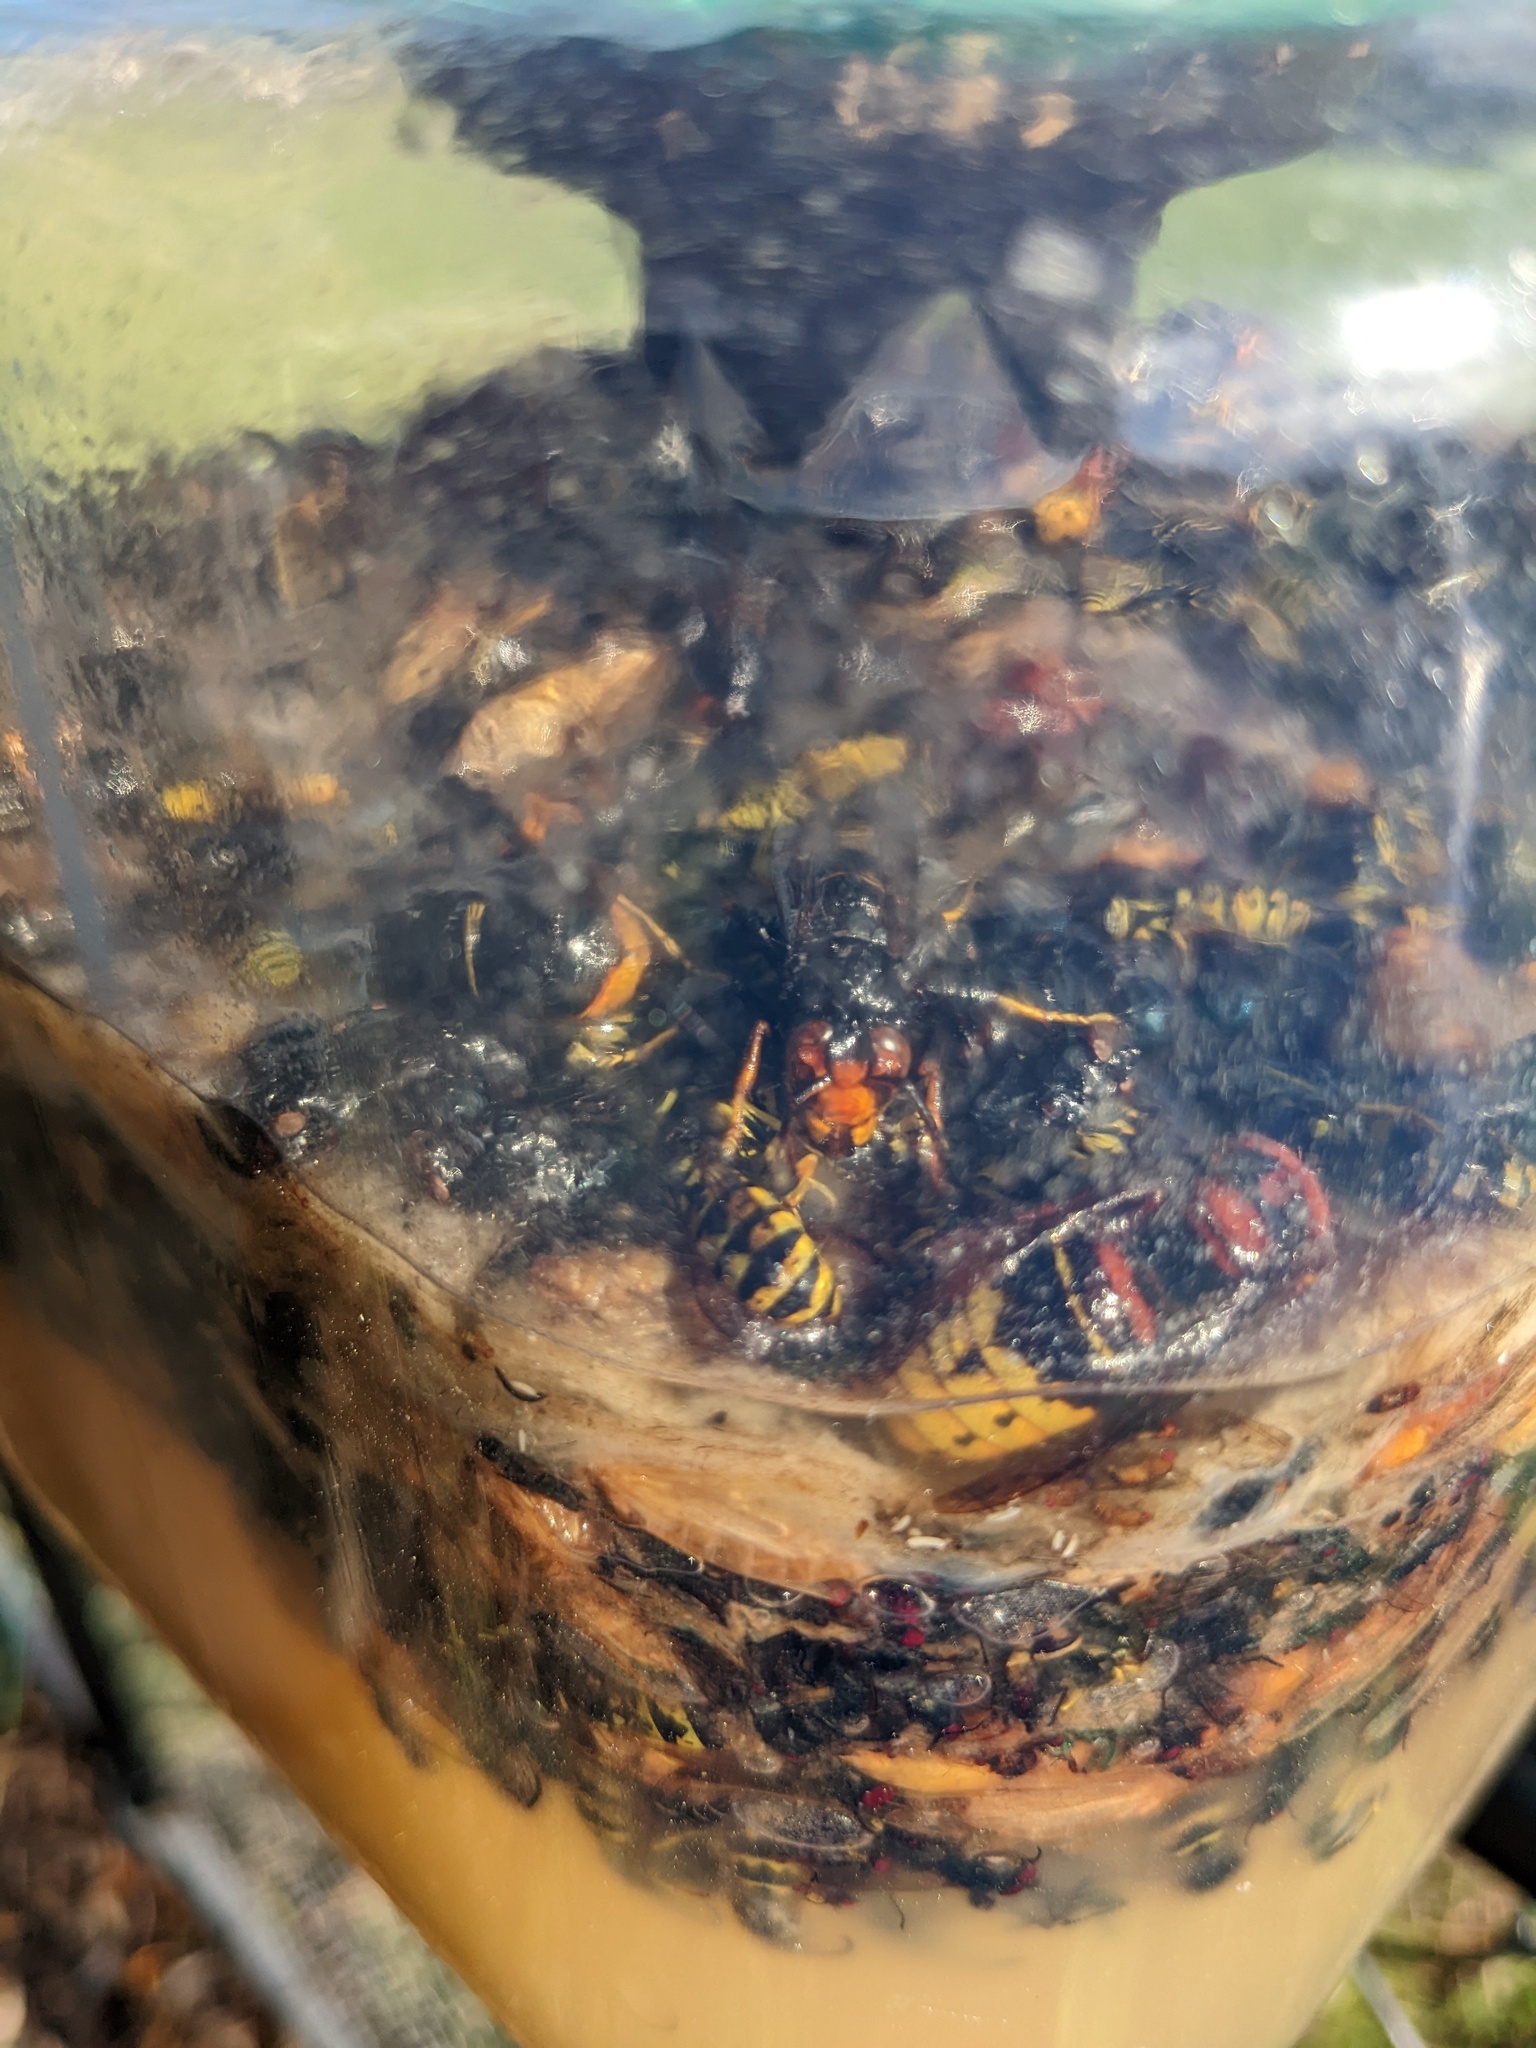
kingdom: Animalia
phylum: Arthropoda
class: Insecta
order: Hymenoptera
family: Vespidae
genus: Vespa
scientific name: Vespa velutina
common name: Asian hornet
